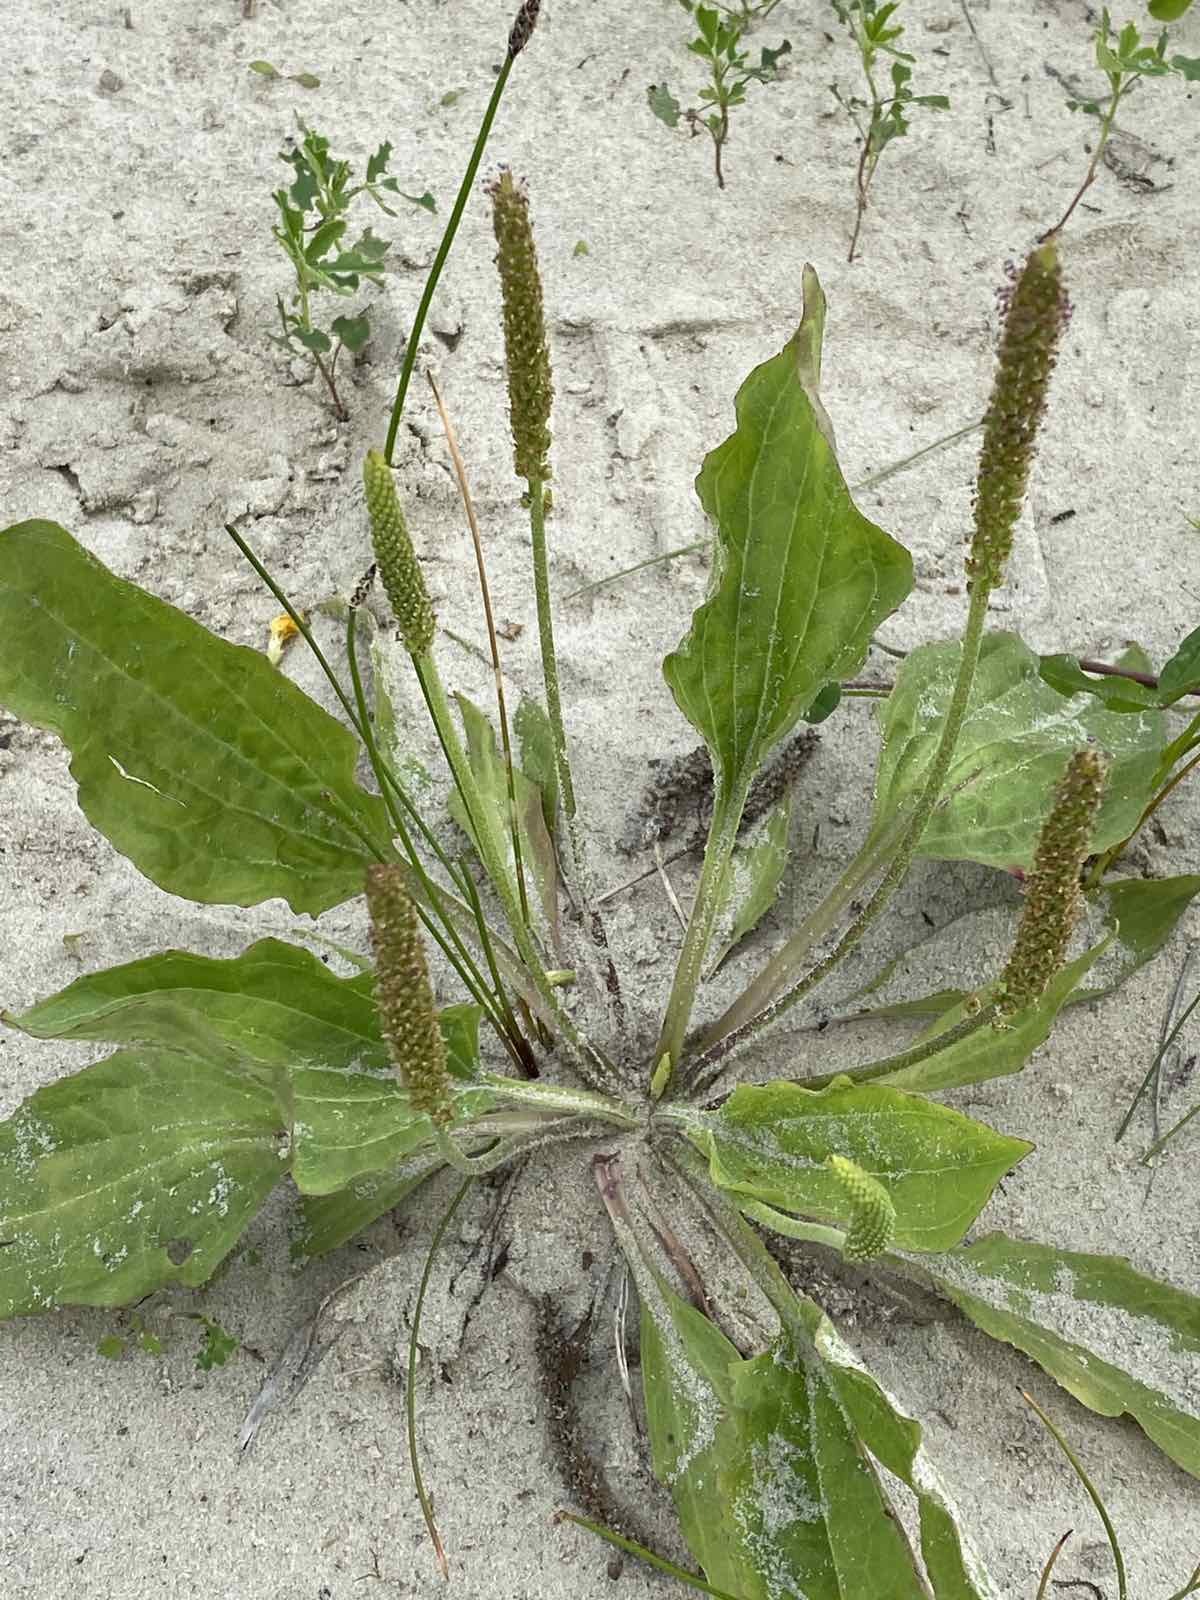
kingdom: Plantae
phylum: Tracheophyta
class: Magnoliopsida
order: Lamiales
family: Plantaginaceae
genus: Plantago
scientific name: Plantago major
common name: Common plantain
